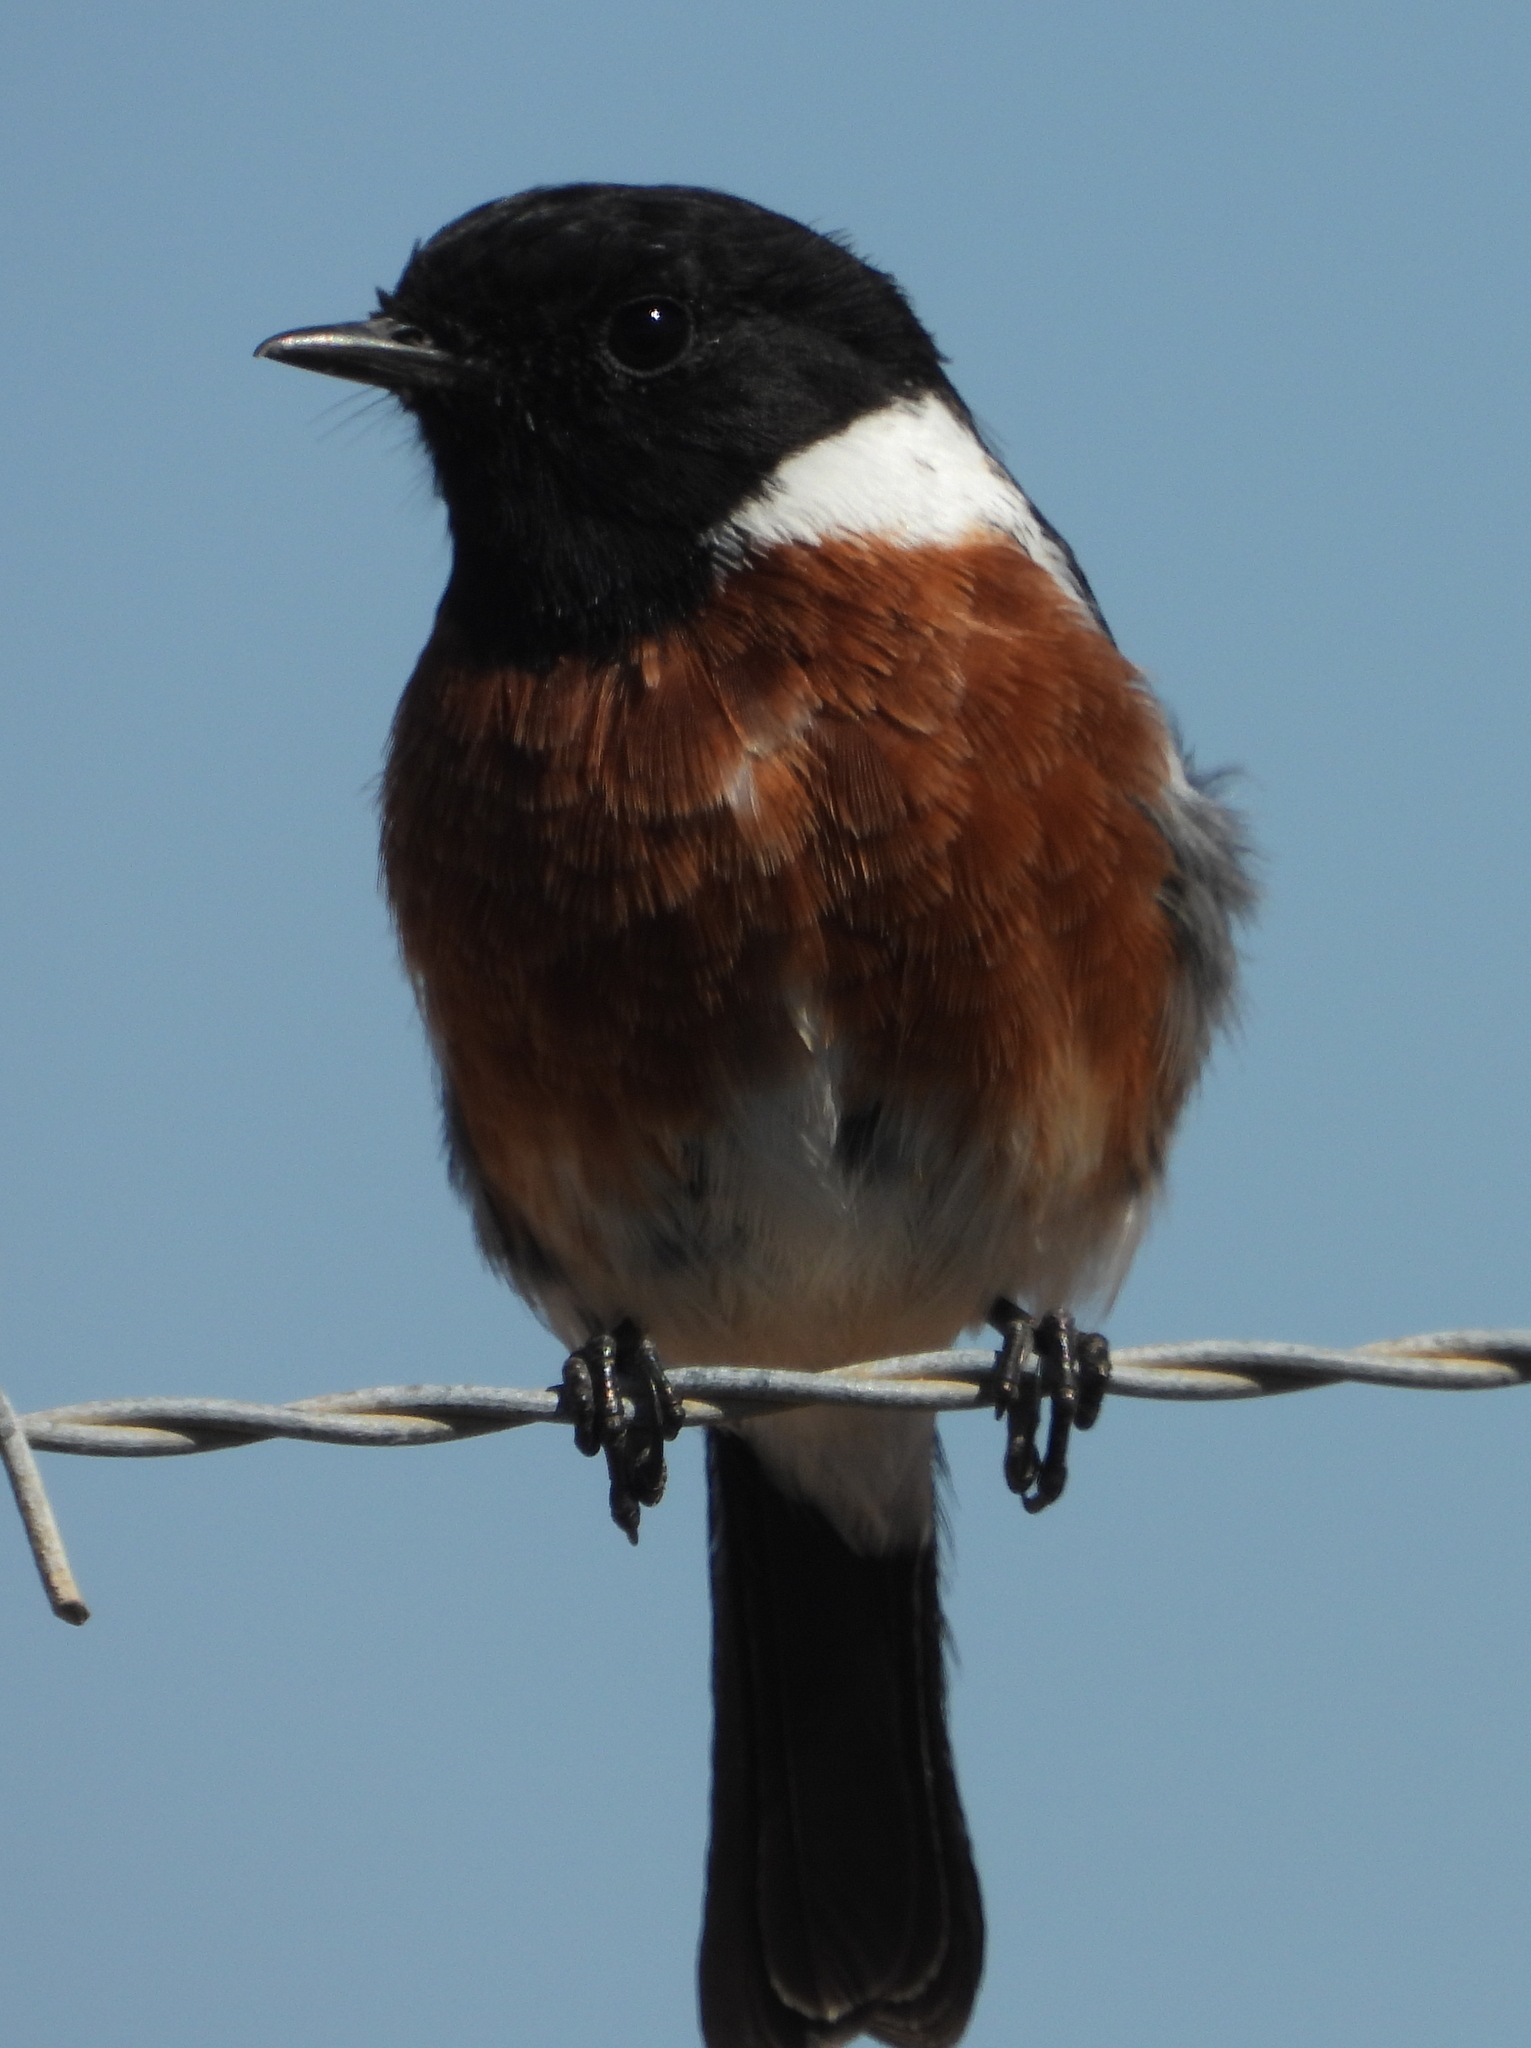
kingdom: Animalia
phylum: Chordata
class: Aves
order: Passeriformes
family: Muscicapidae
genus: Saxicola
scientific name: Saxicola torquatus
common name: African stonechat
